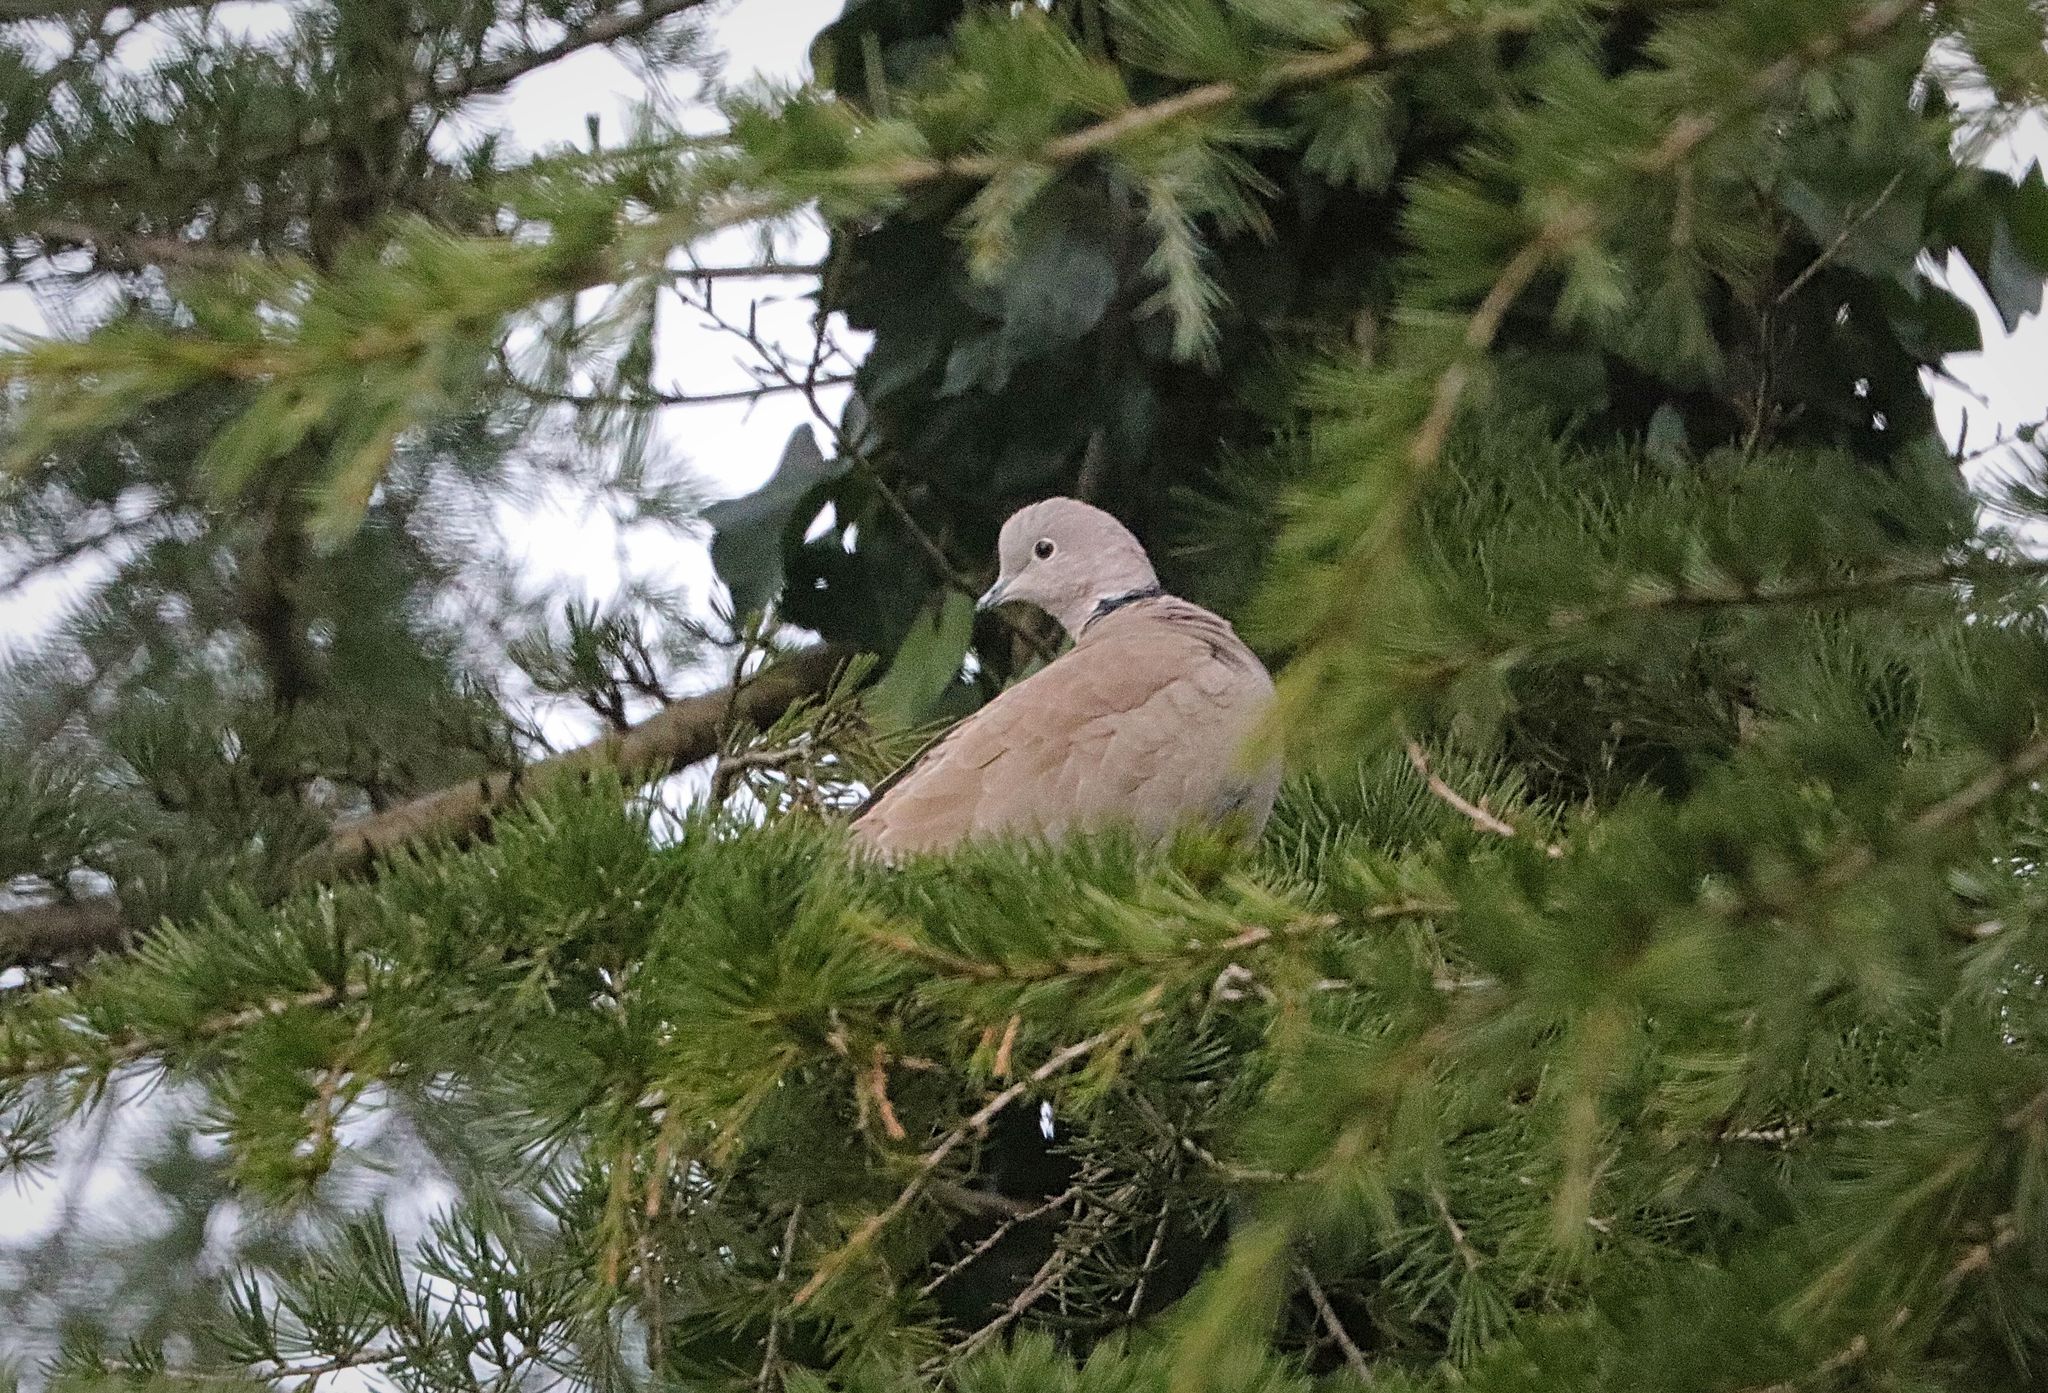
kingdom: Animalia
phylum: Chordata
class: Aves
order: Columbiformes
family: Columbidae
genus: Streptopelia
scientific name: Streptopelia decaocto
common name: Eurasian collared dove
